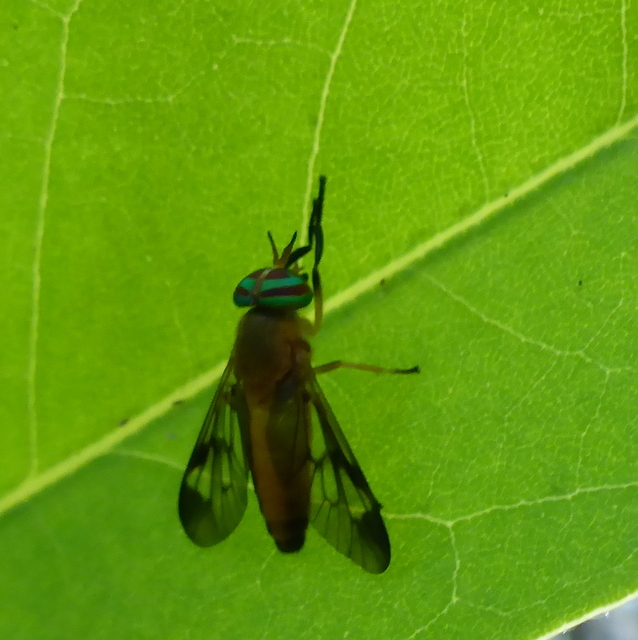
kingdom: Animalia
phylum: Arthropoda
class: Insecta
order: Diptera
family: Tabanidae
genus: Diachlorus
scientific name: Diachlorus ferrugatus
